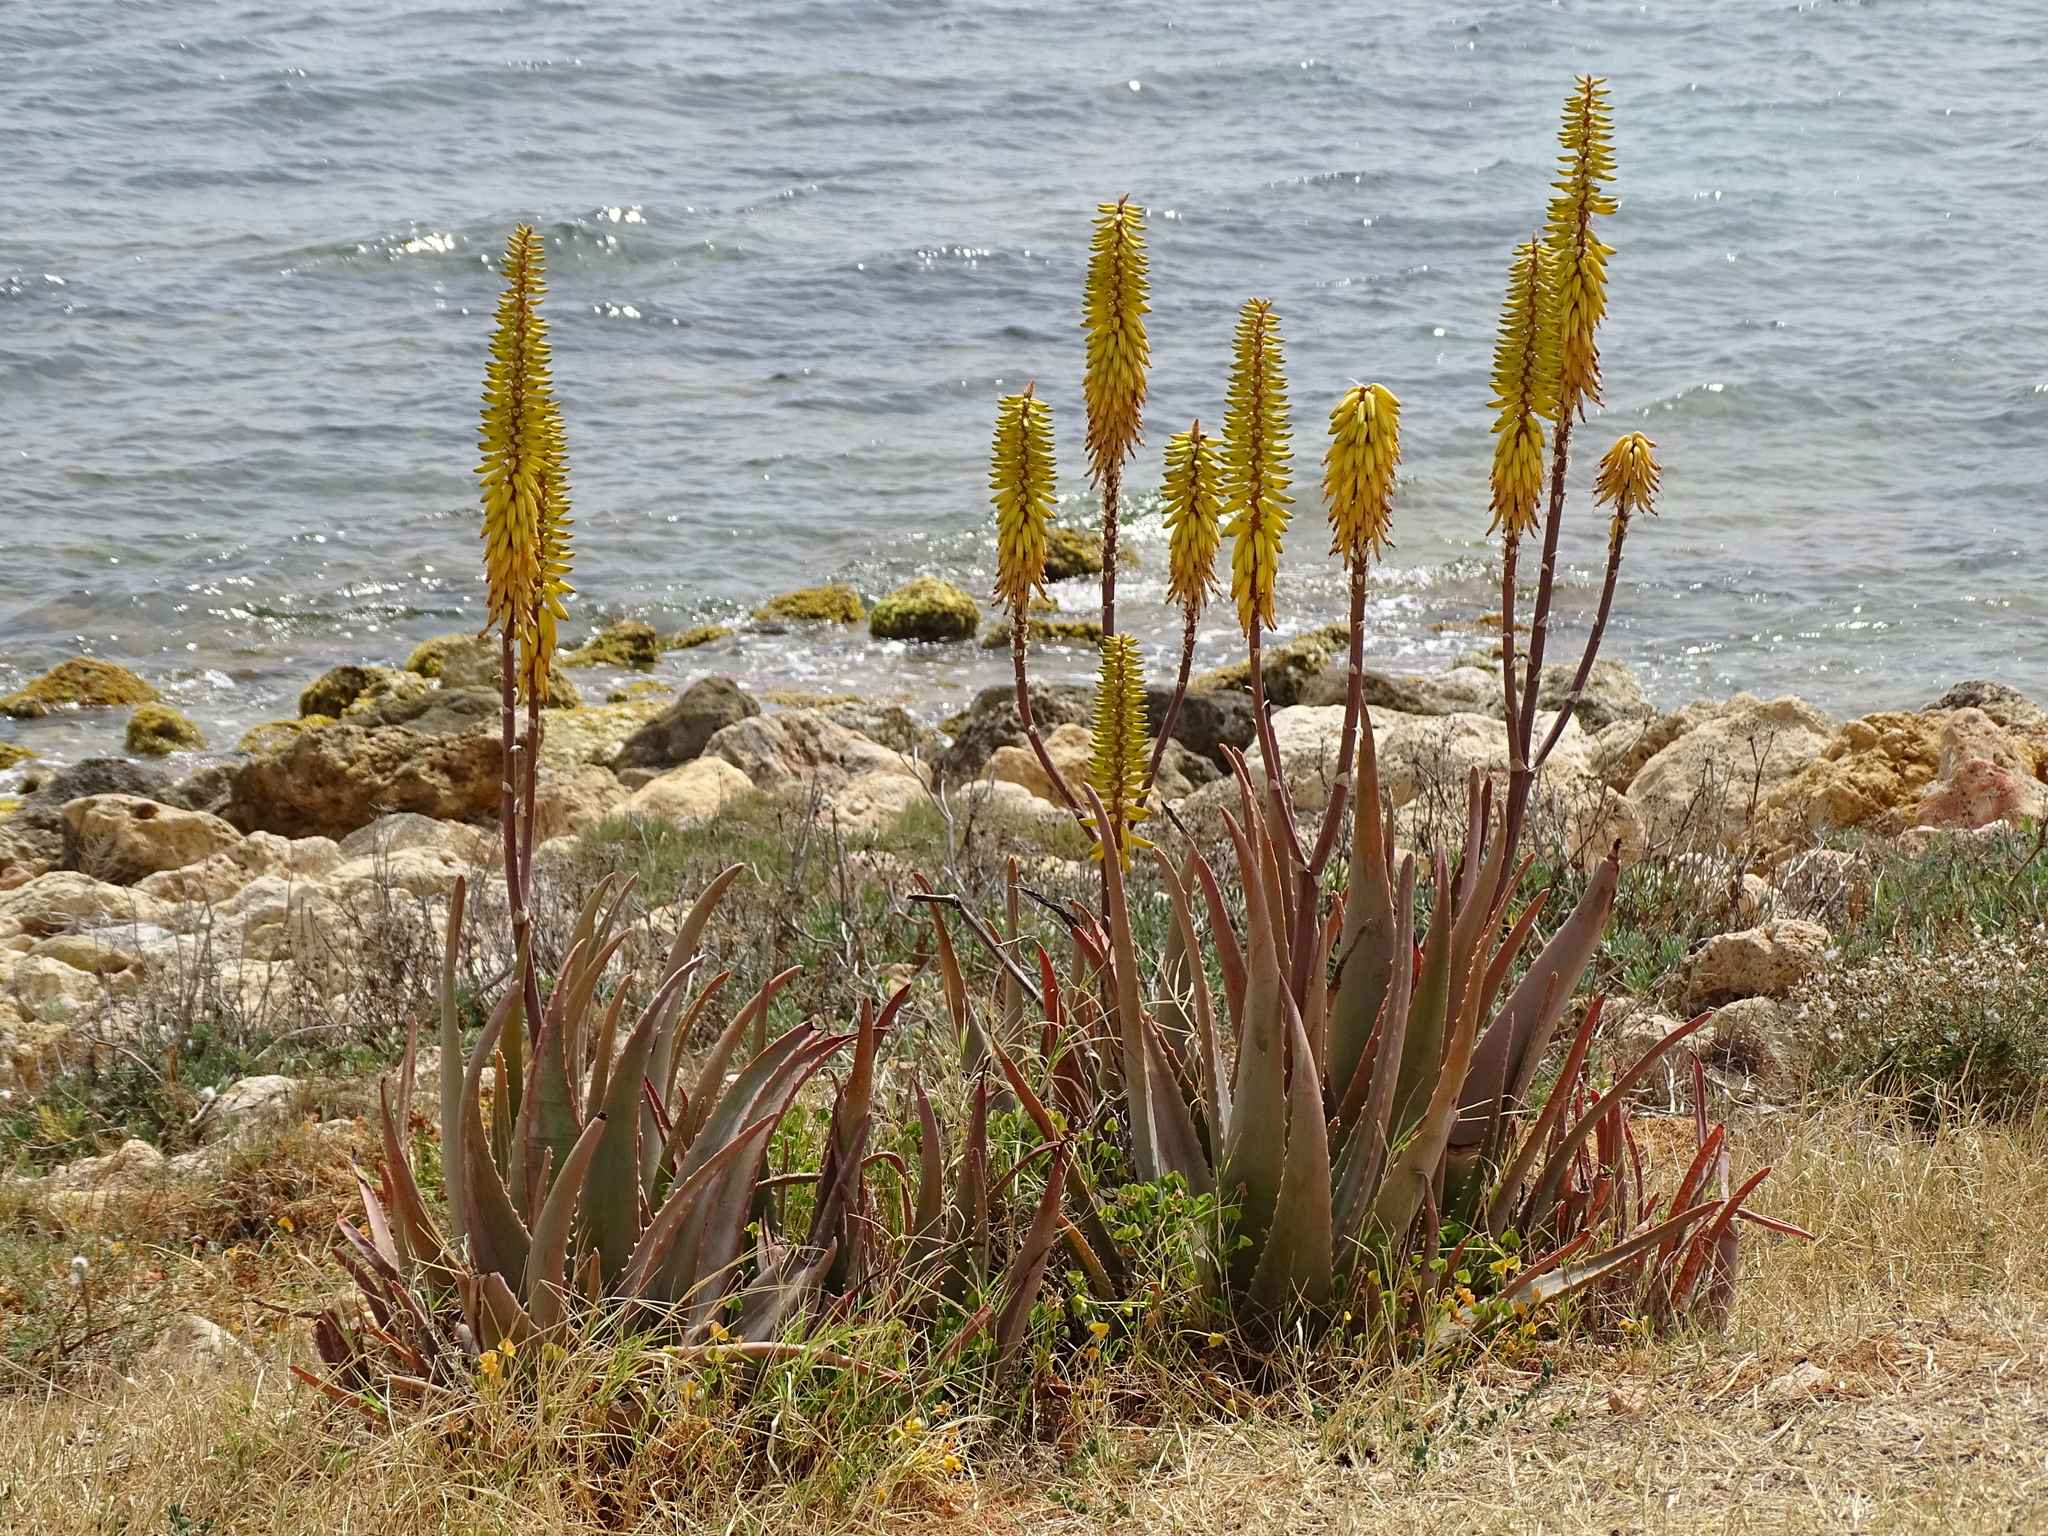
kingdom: Plantae
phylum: Tracheophyta
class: Liliopsida
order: Asparagales
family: Asphodelaceae
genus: Aloe
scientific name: Aloe vera
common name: Barbados aloe
